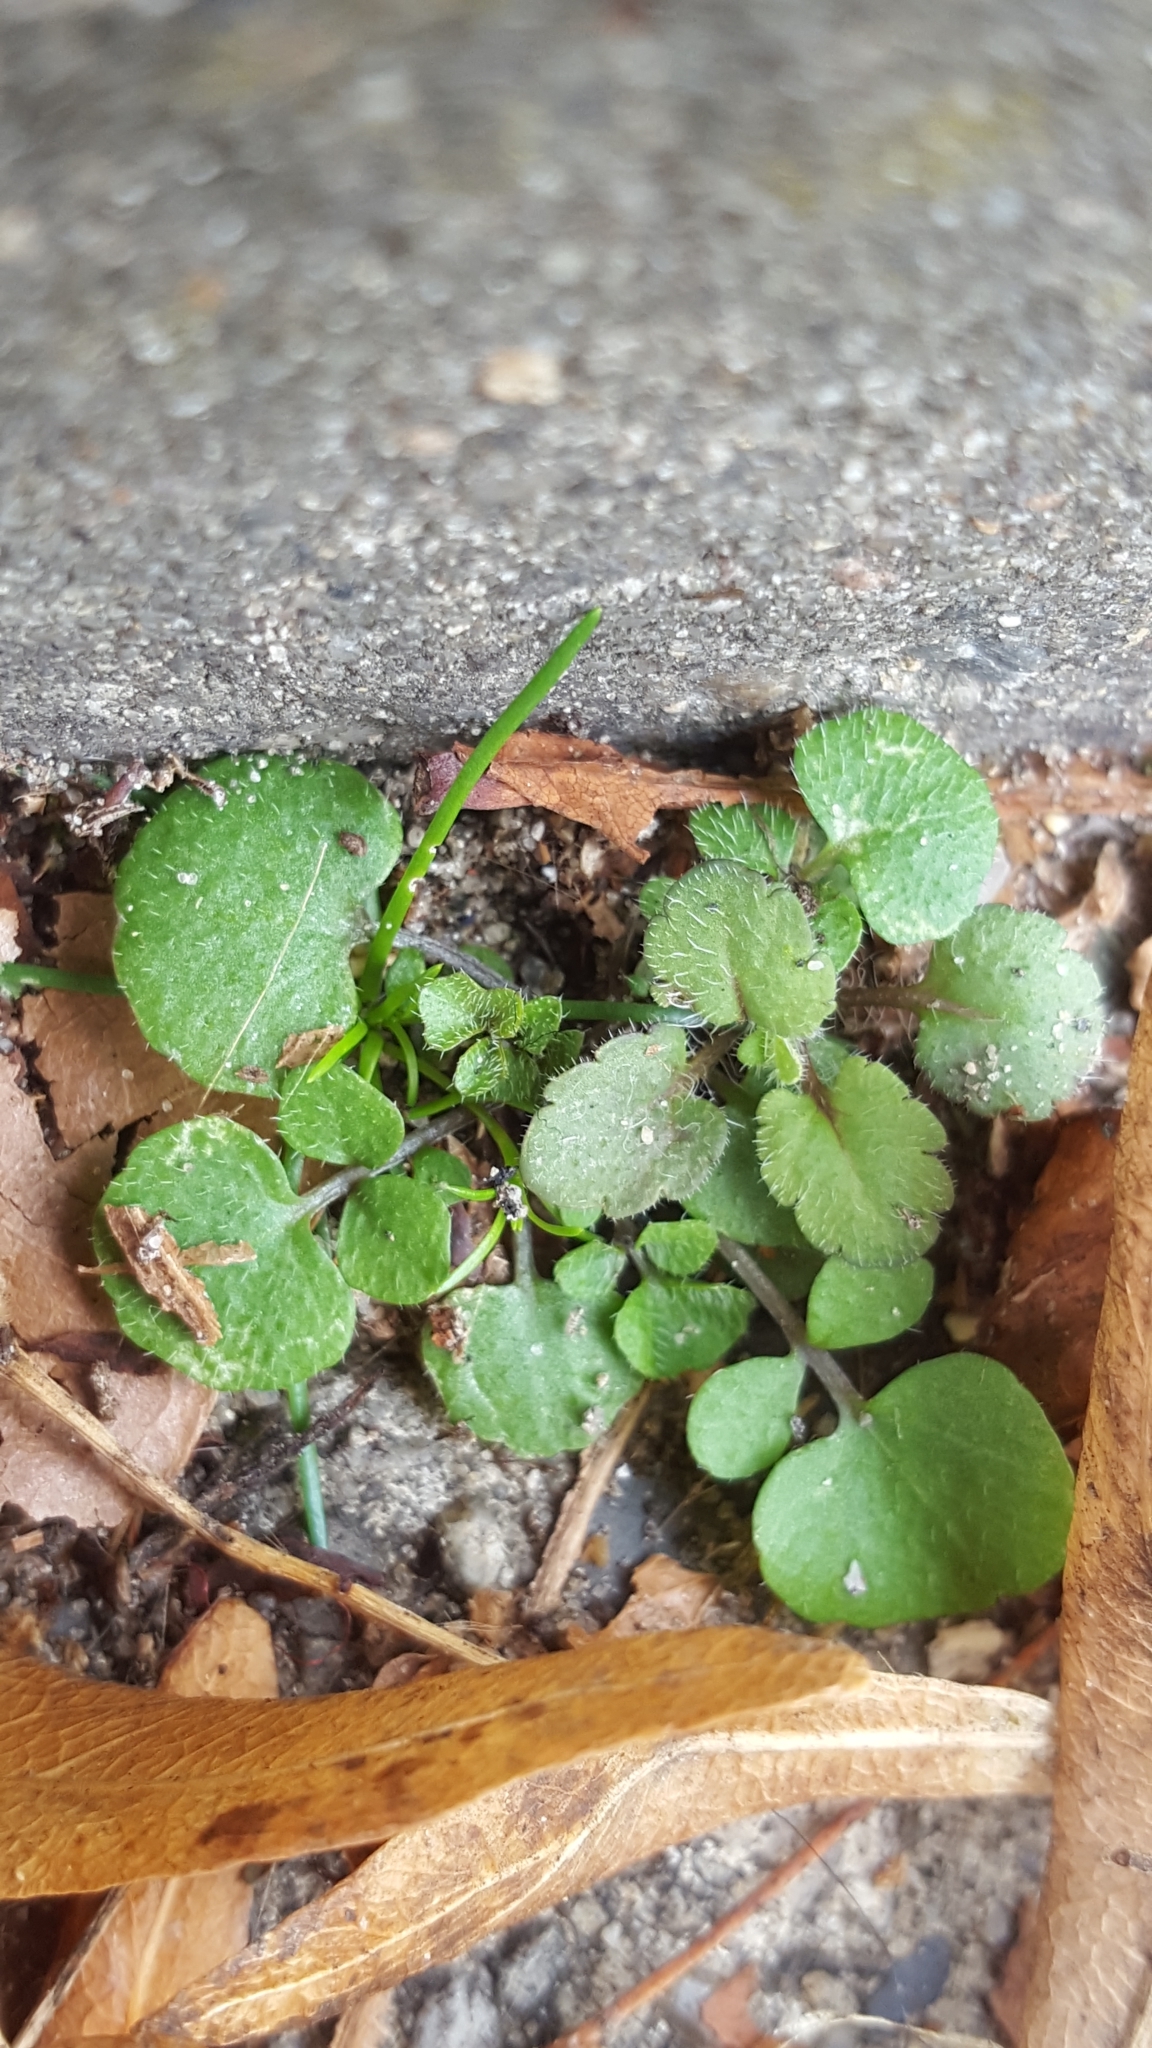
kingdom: Plantae
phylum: Tracheophyta
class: Magnoliopsida
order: Brassicales
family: Brassicaceae
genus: Cardamine
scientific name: Cardamine hirsuta
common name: Hairy bittercress
